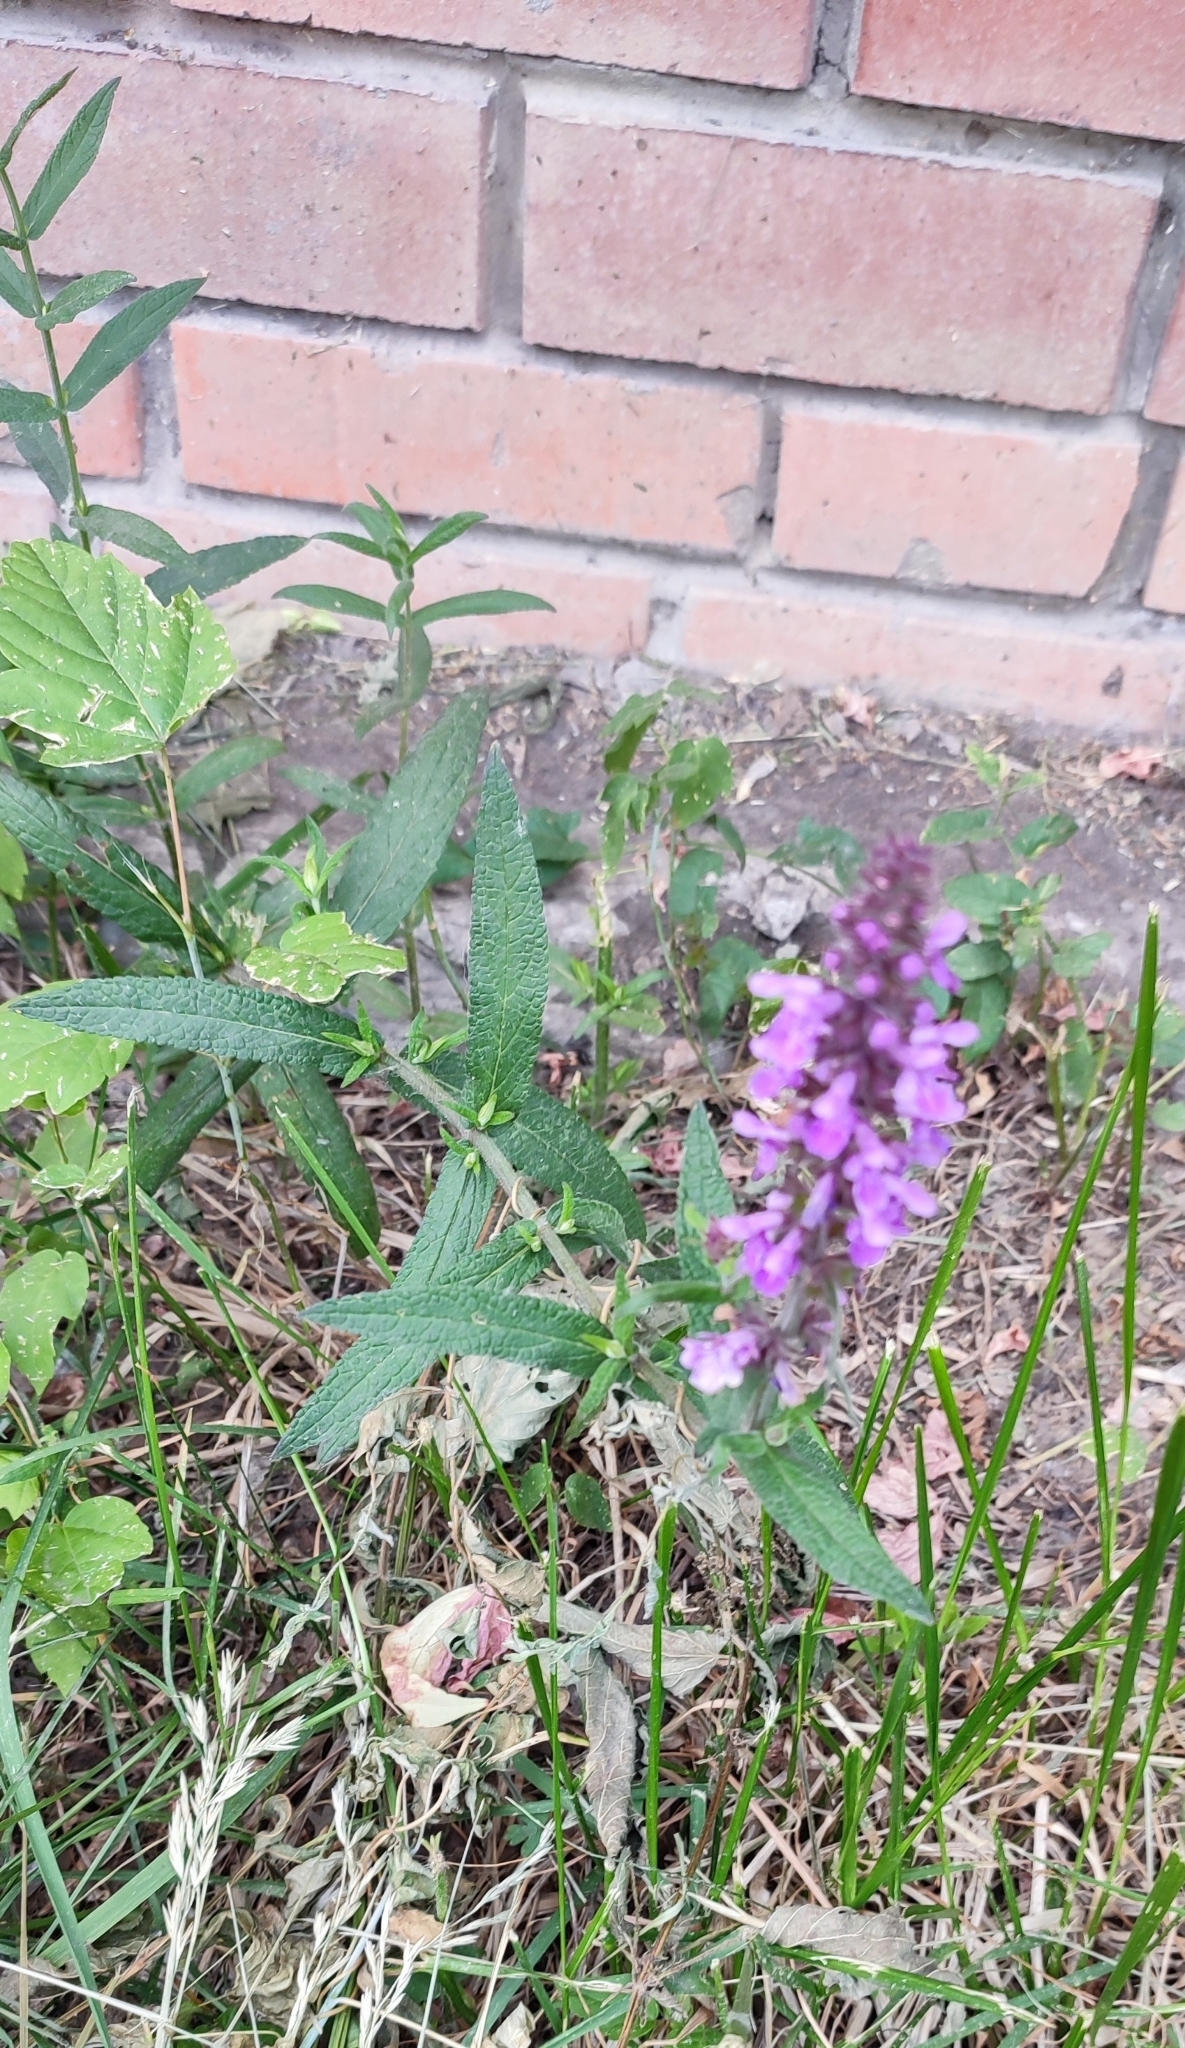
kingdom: Plantae
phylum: Tracheophyta
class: Magnoliopsida
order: Lamiales
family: Lamiaceae
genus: Stachys
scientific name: Stachys palustris
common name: Marsh woundwort
